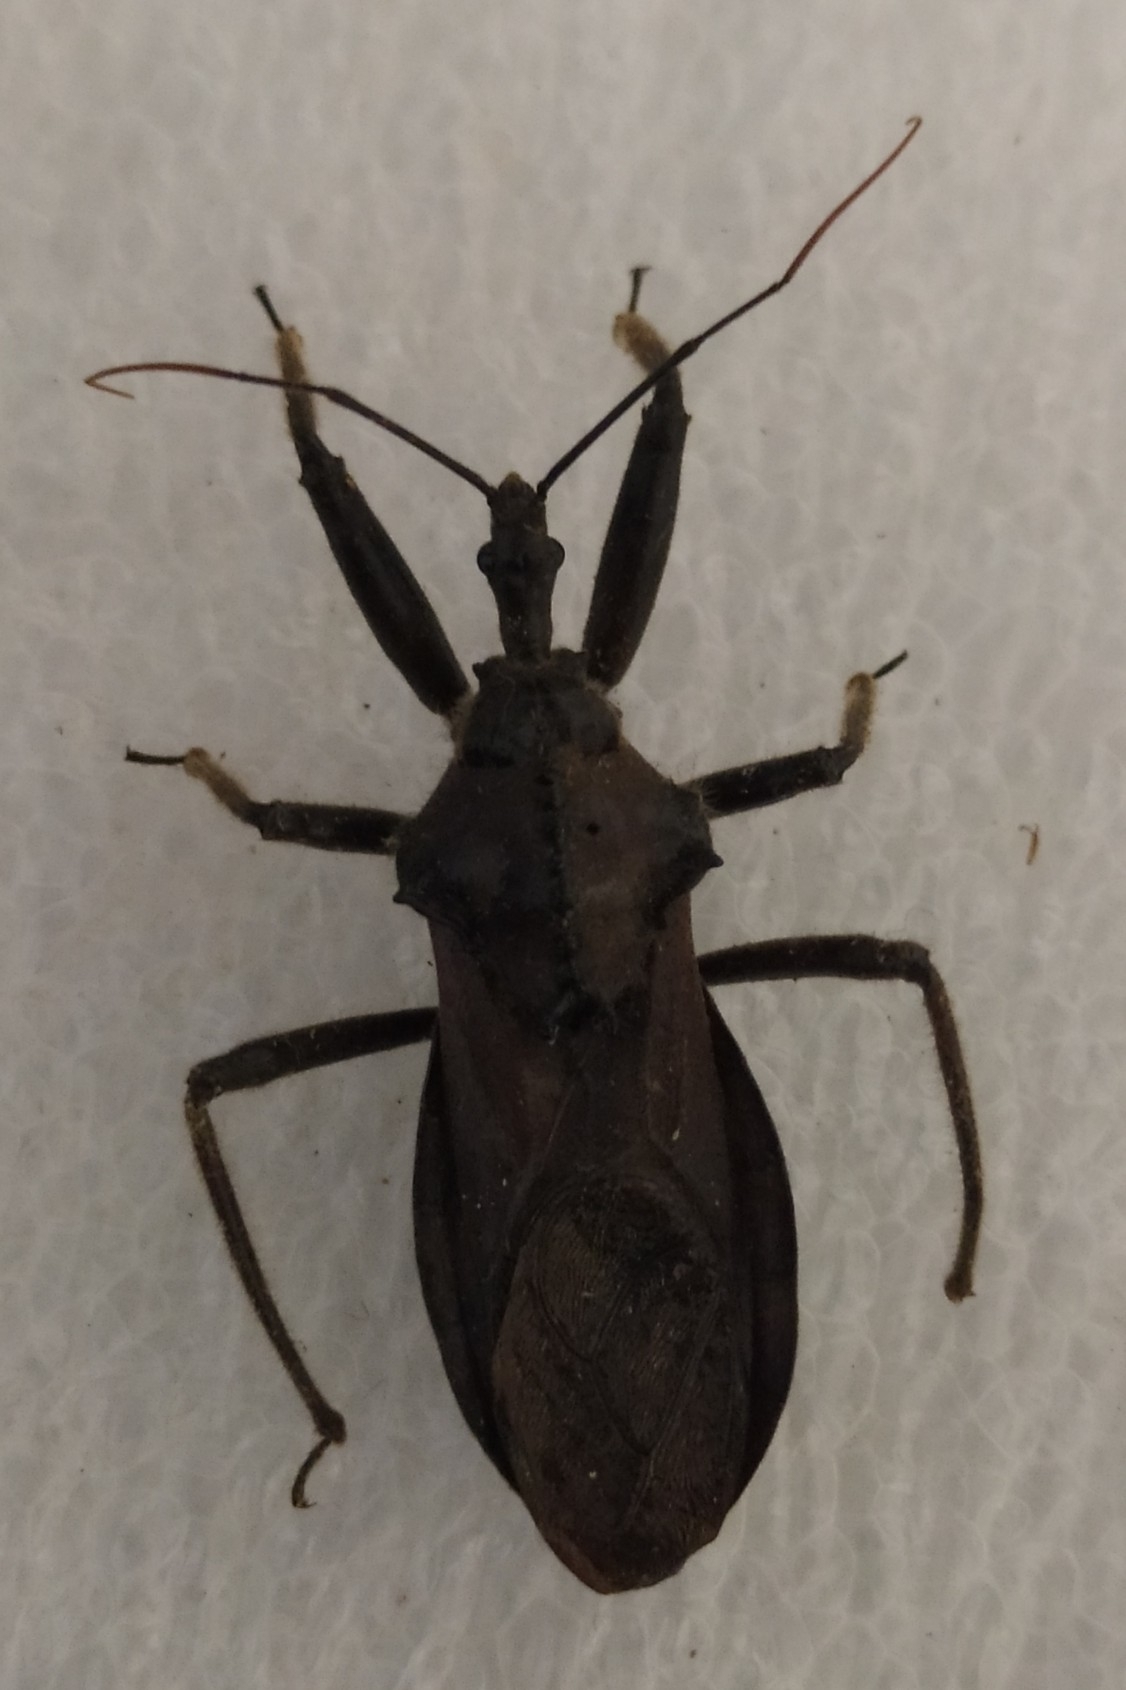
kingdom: Animalia
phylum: Arthropoda
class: Insecta
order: Hemiptera
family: Reduviidae
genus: Arilus
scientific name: Arilus depressicollis
